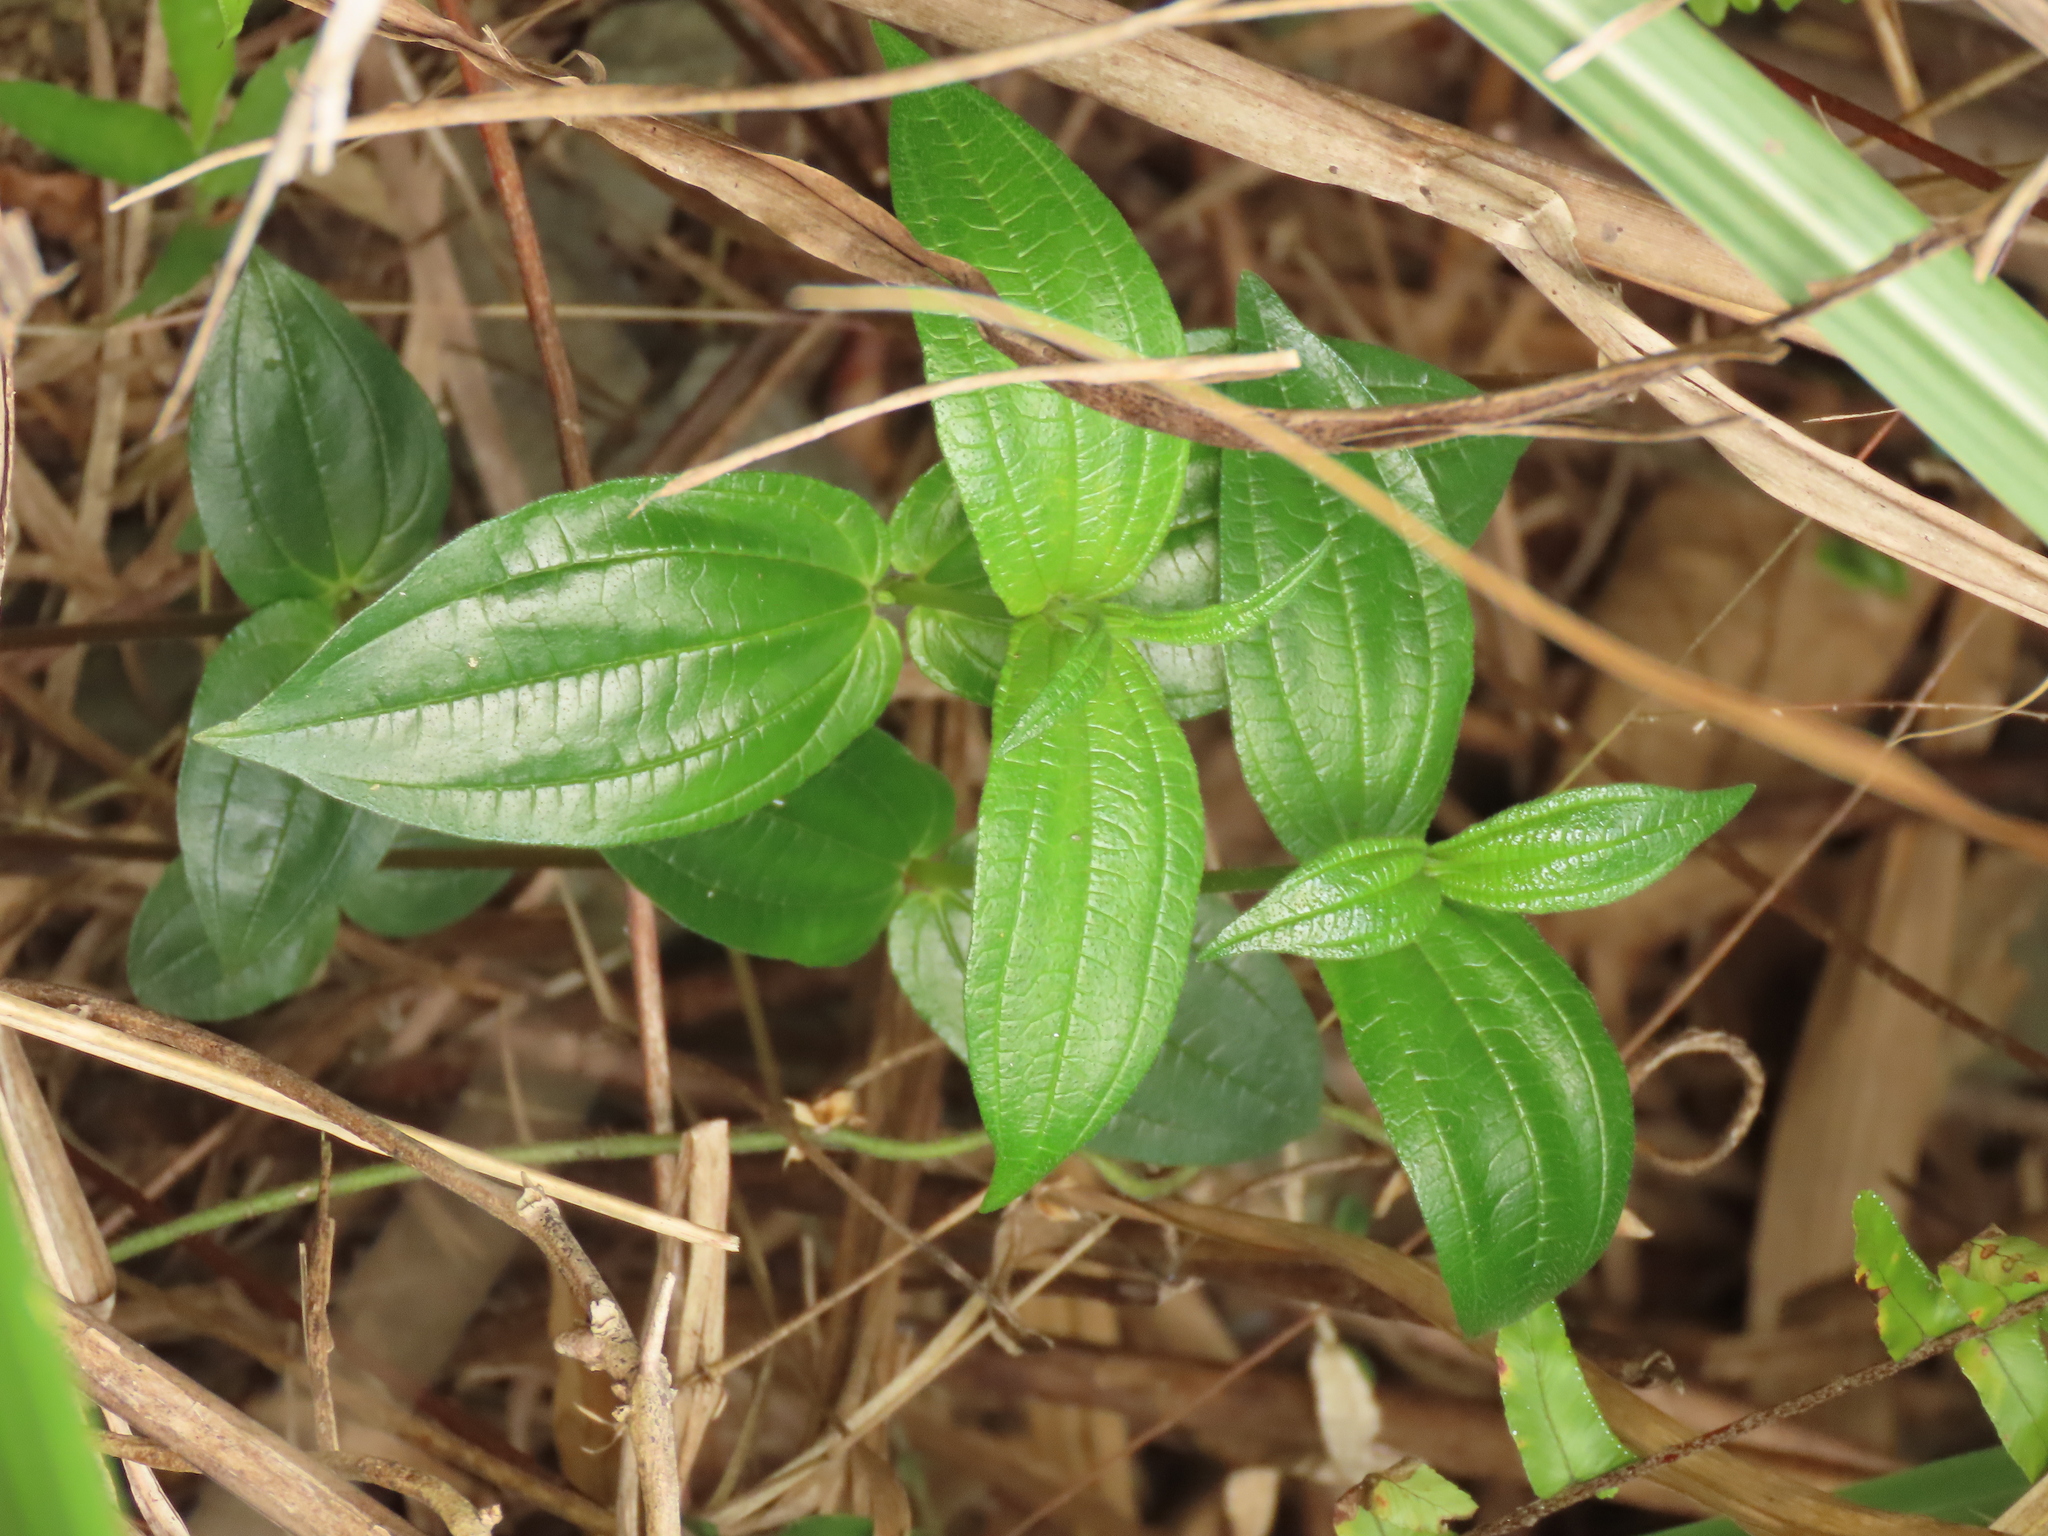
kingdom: Plantae
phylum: Tracheophyta
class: Magnoliopsida
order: Rosales
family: Urticaceae
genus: Gonostegia
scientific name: Gonostegia triandra
